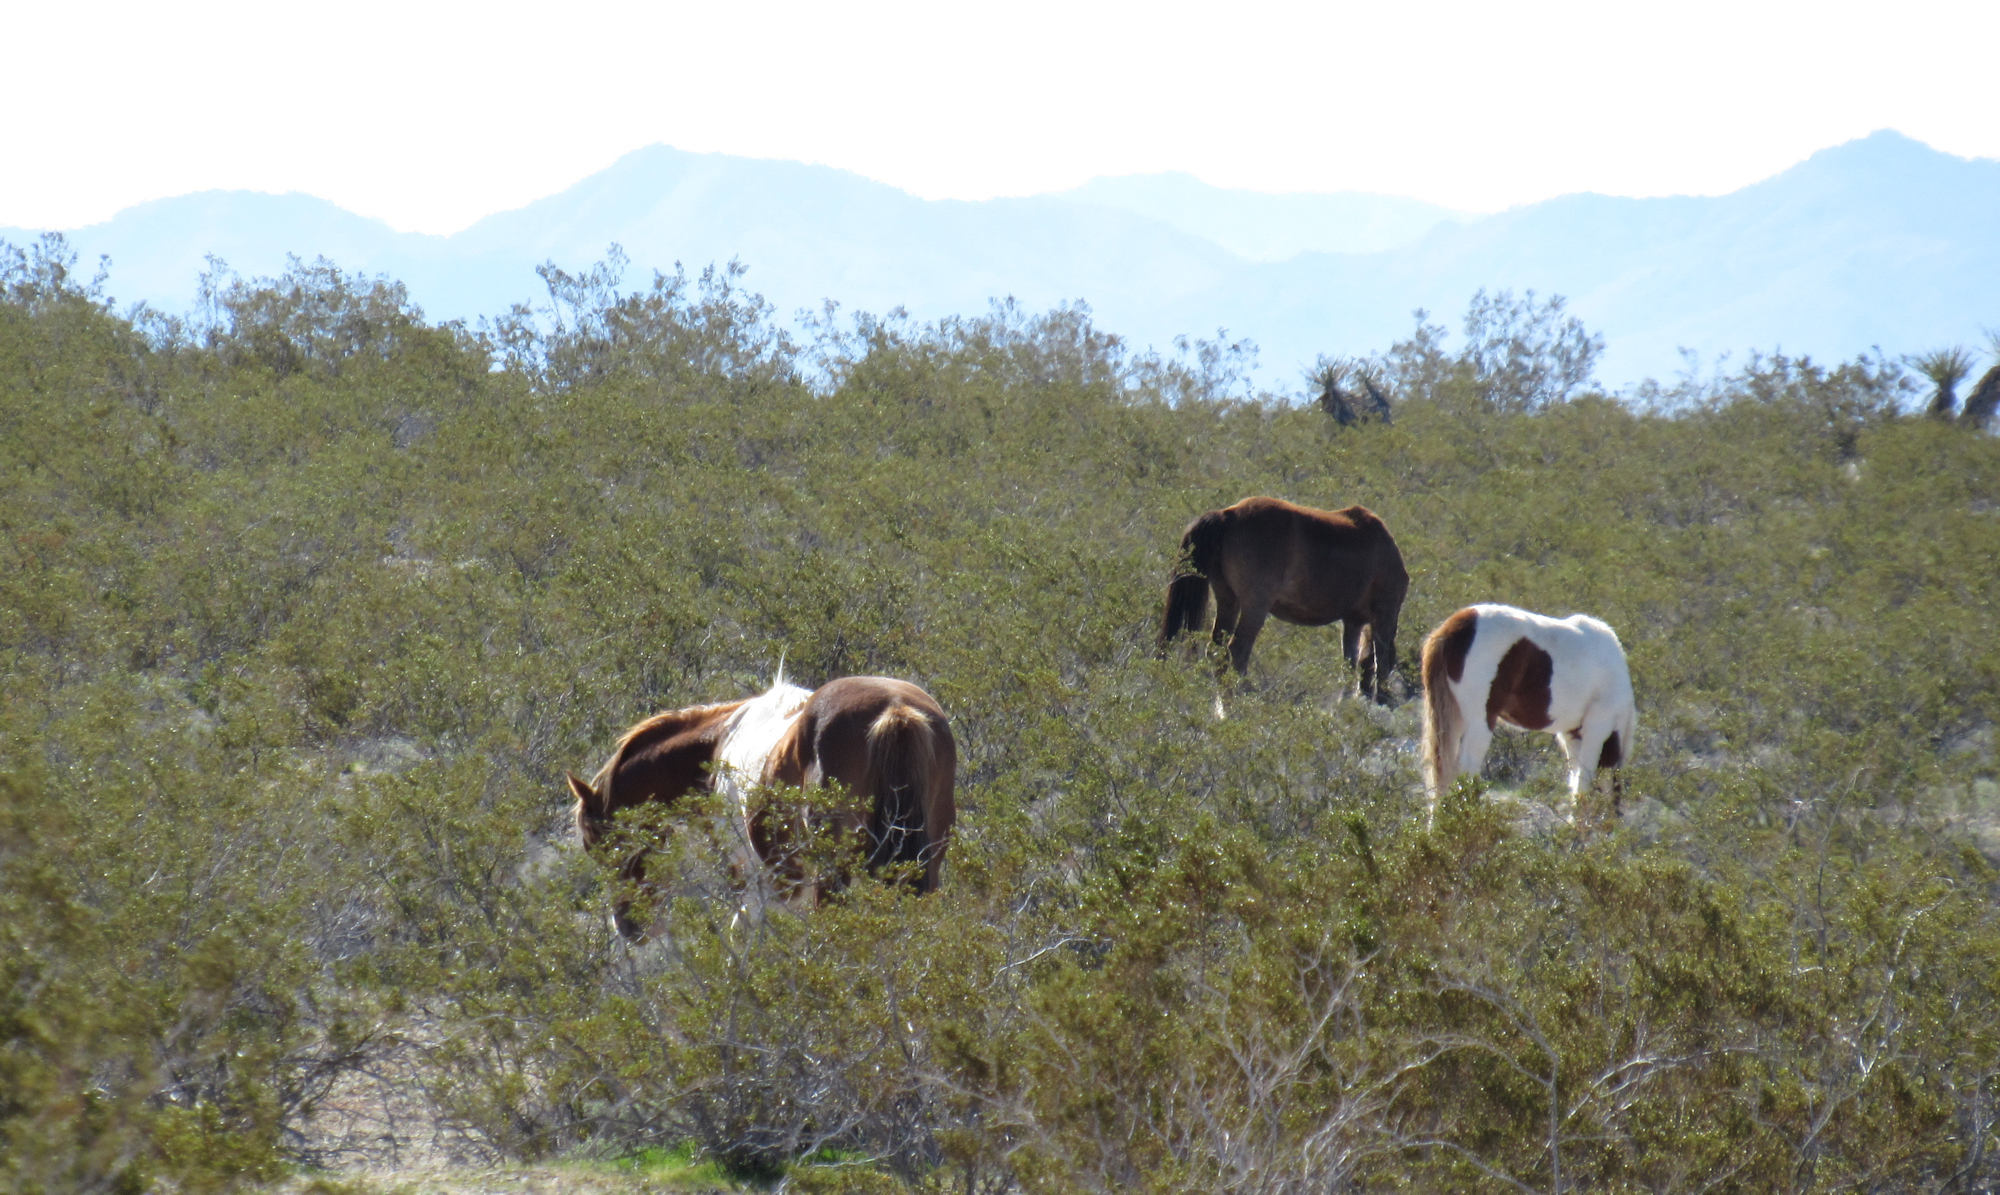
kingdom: Animalia
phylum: Chordata
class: Mammalia
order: Perissodactyla
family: Equidae
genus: Equus
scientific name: Equus caballus
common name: Horse
